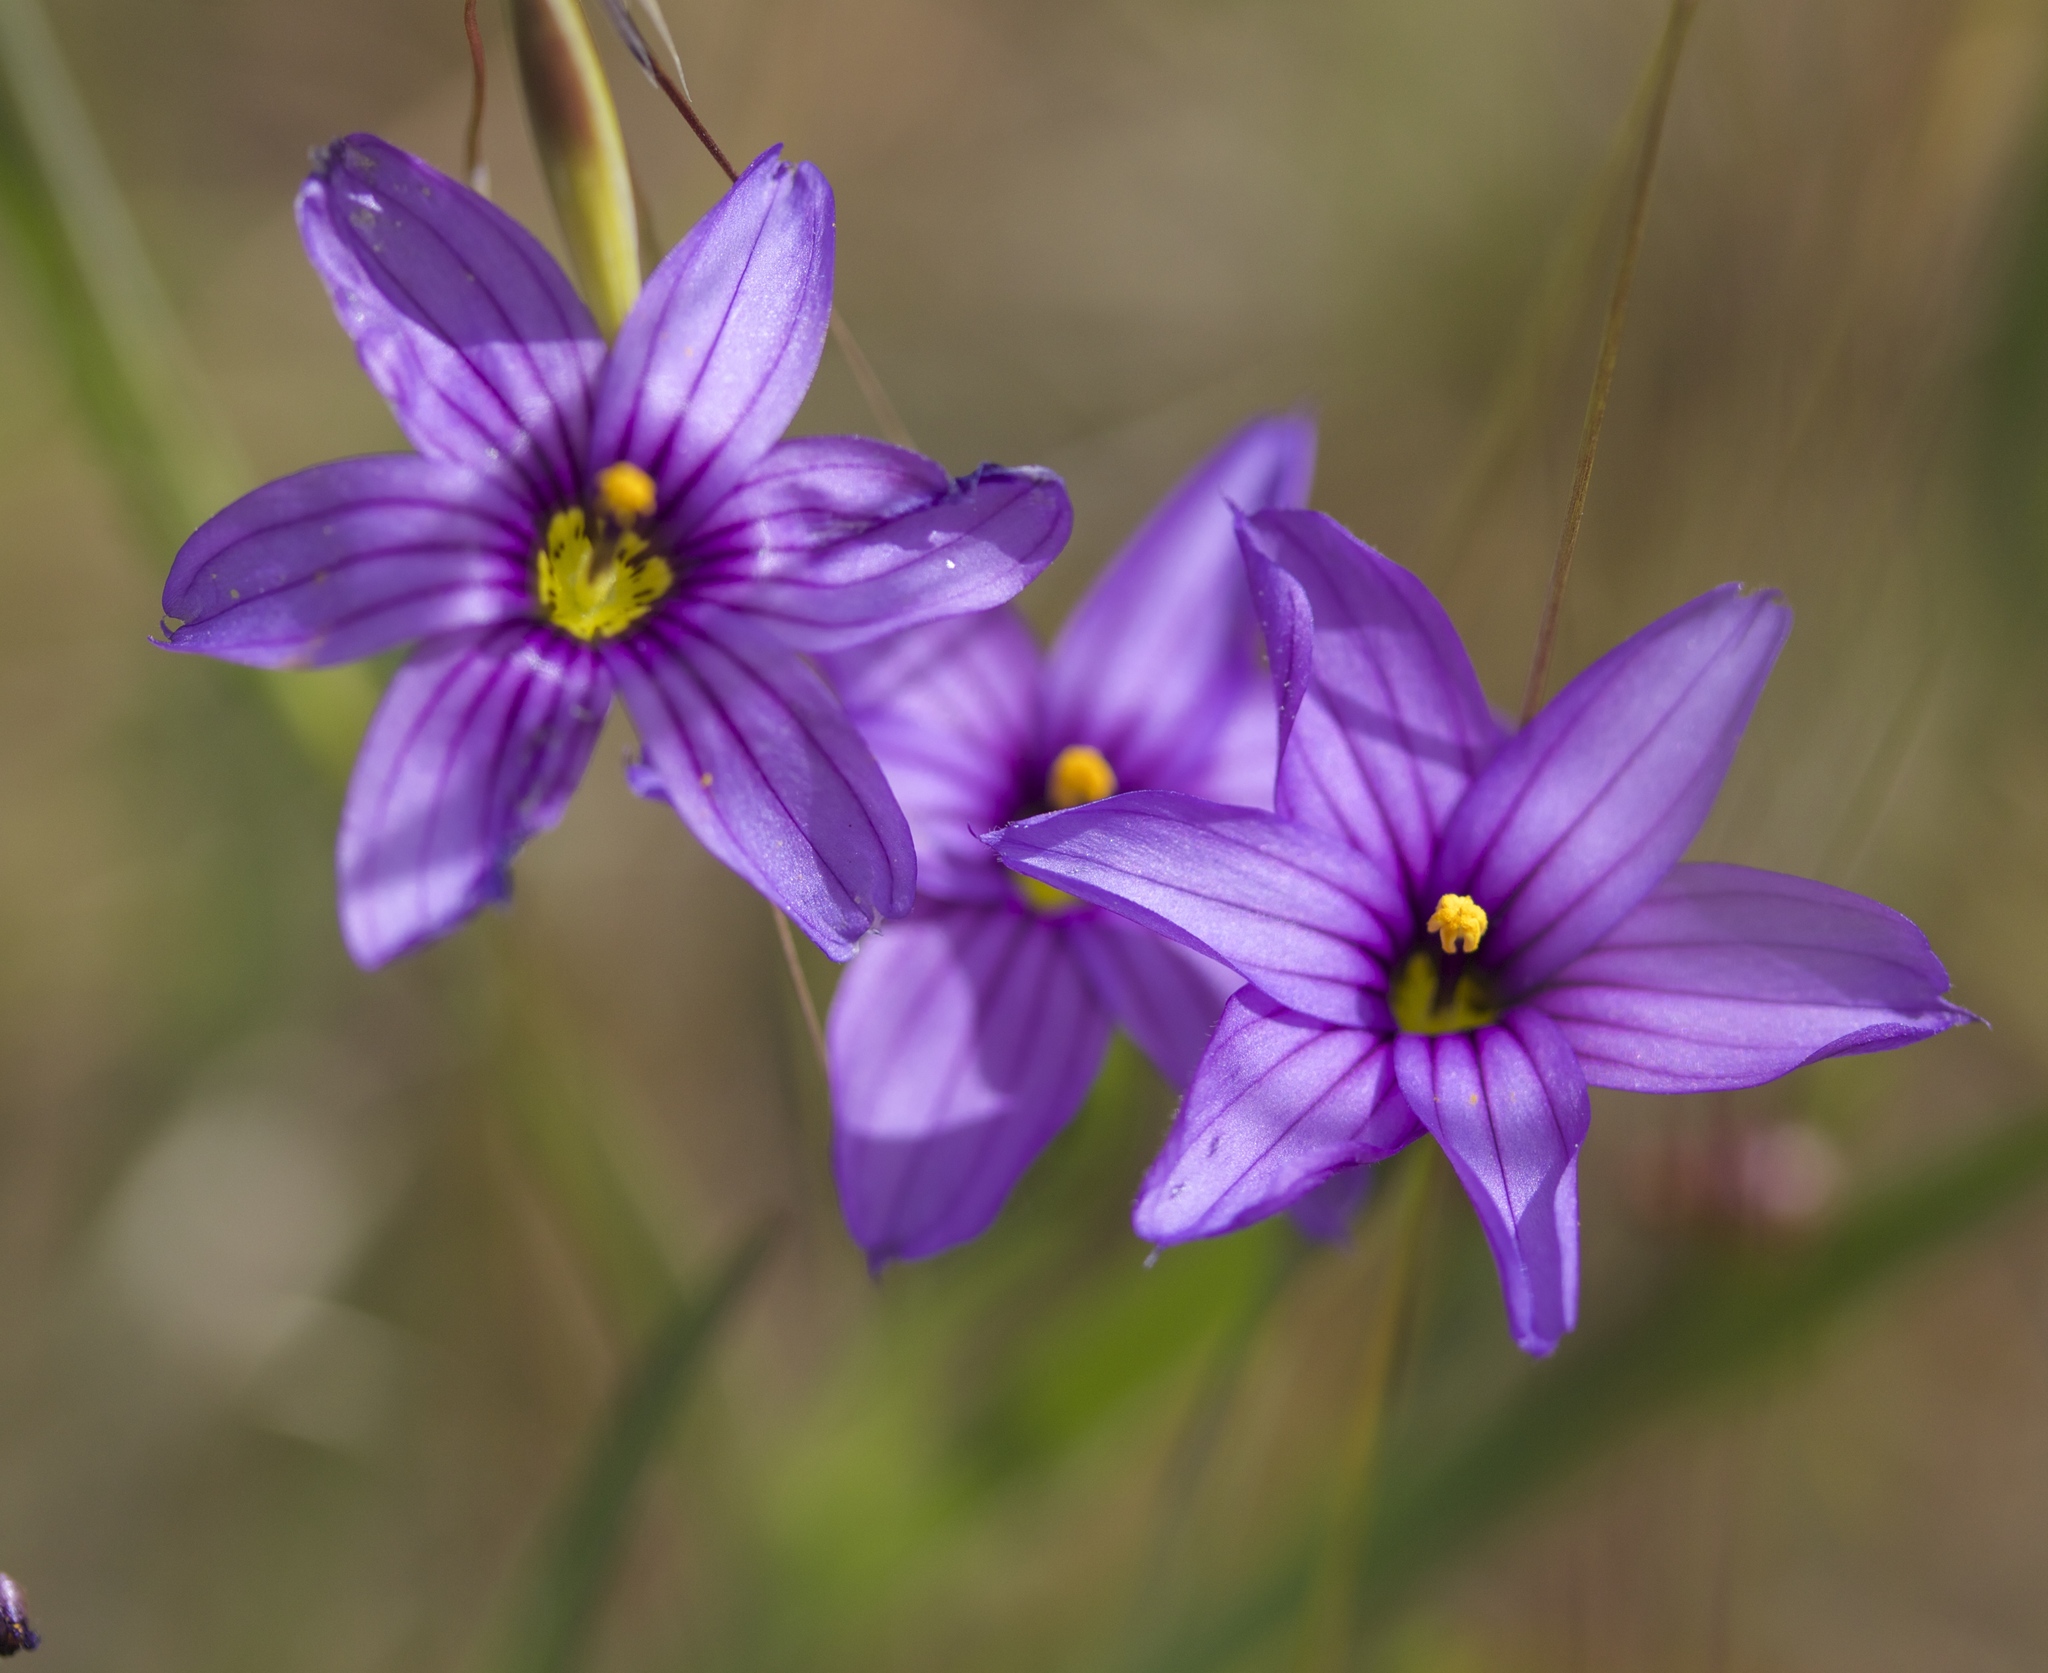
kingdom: Plantae
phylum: Tracheophyta
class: Liliopsida
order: Asparagales
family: Iridaceae
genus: Sisyrinchium
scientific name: Sisyrinchium bellum
